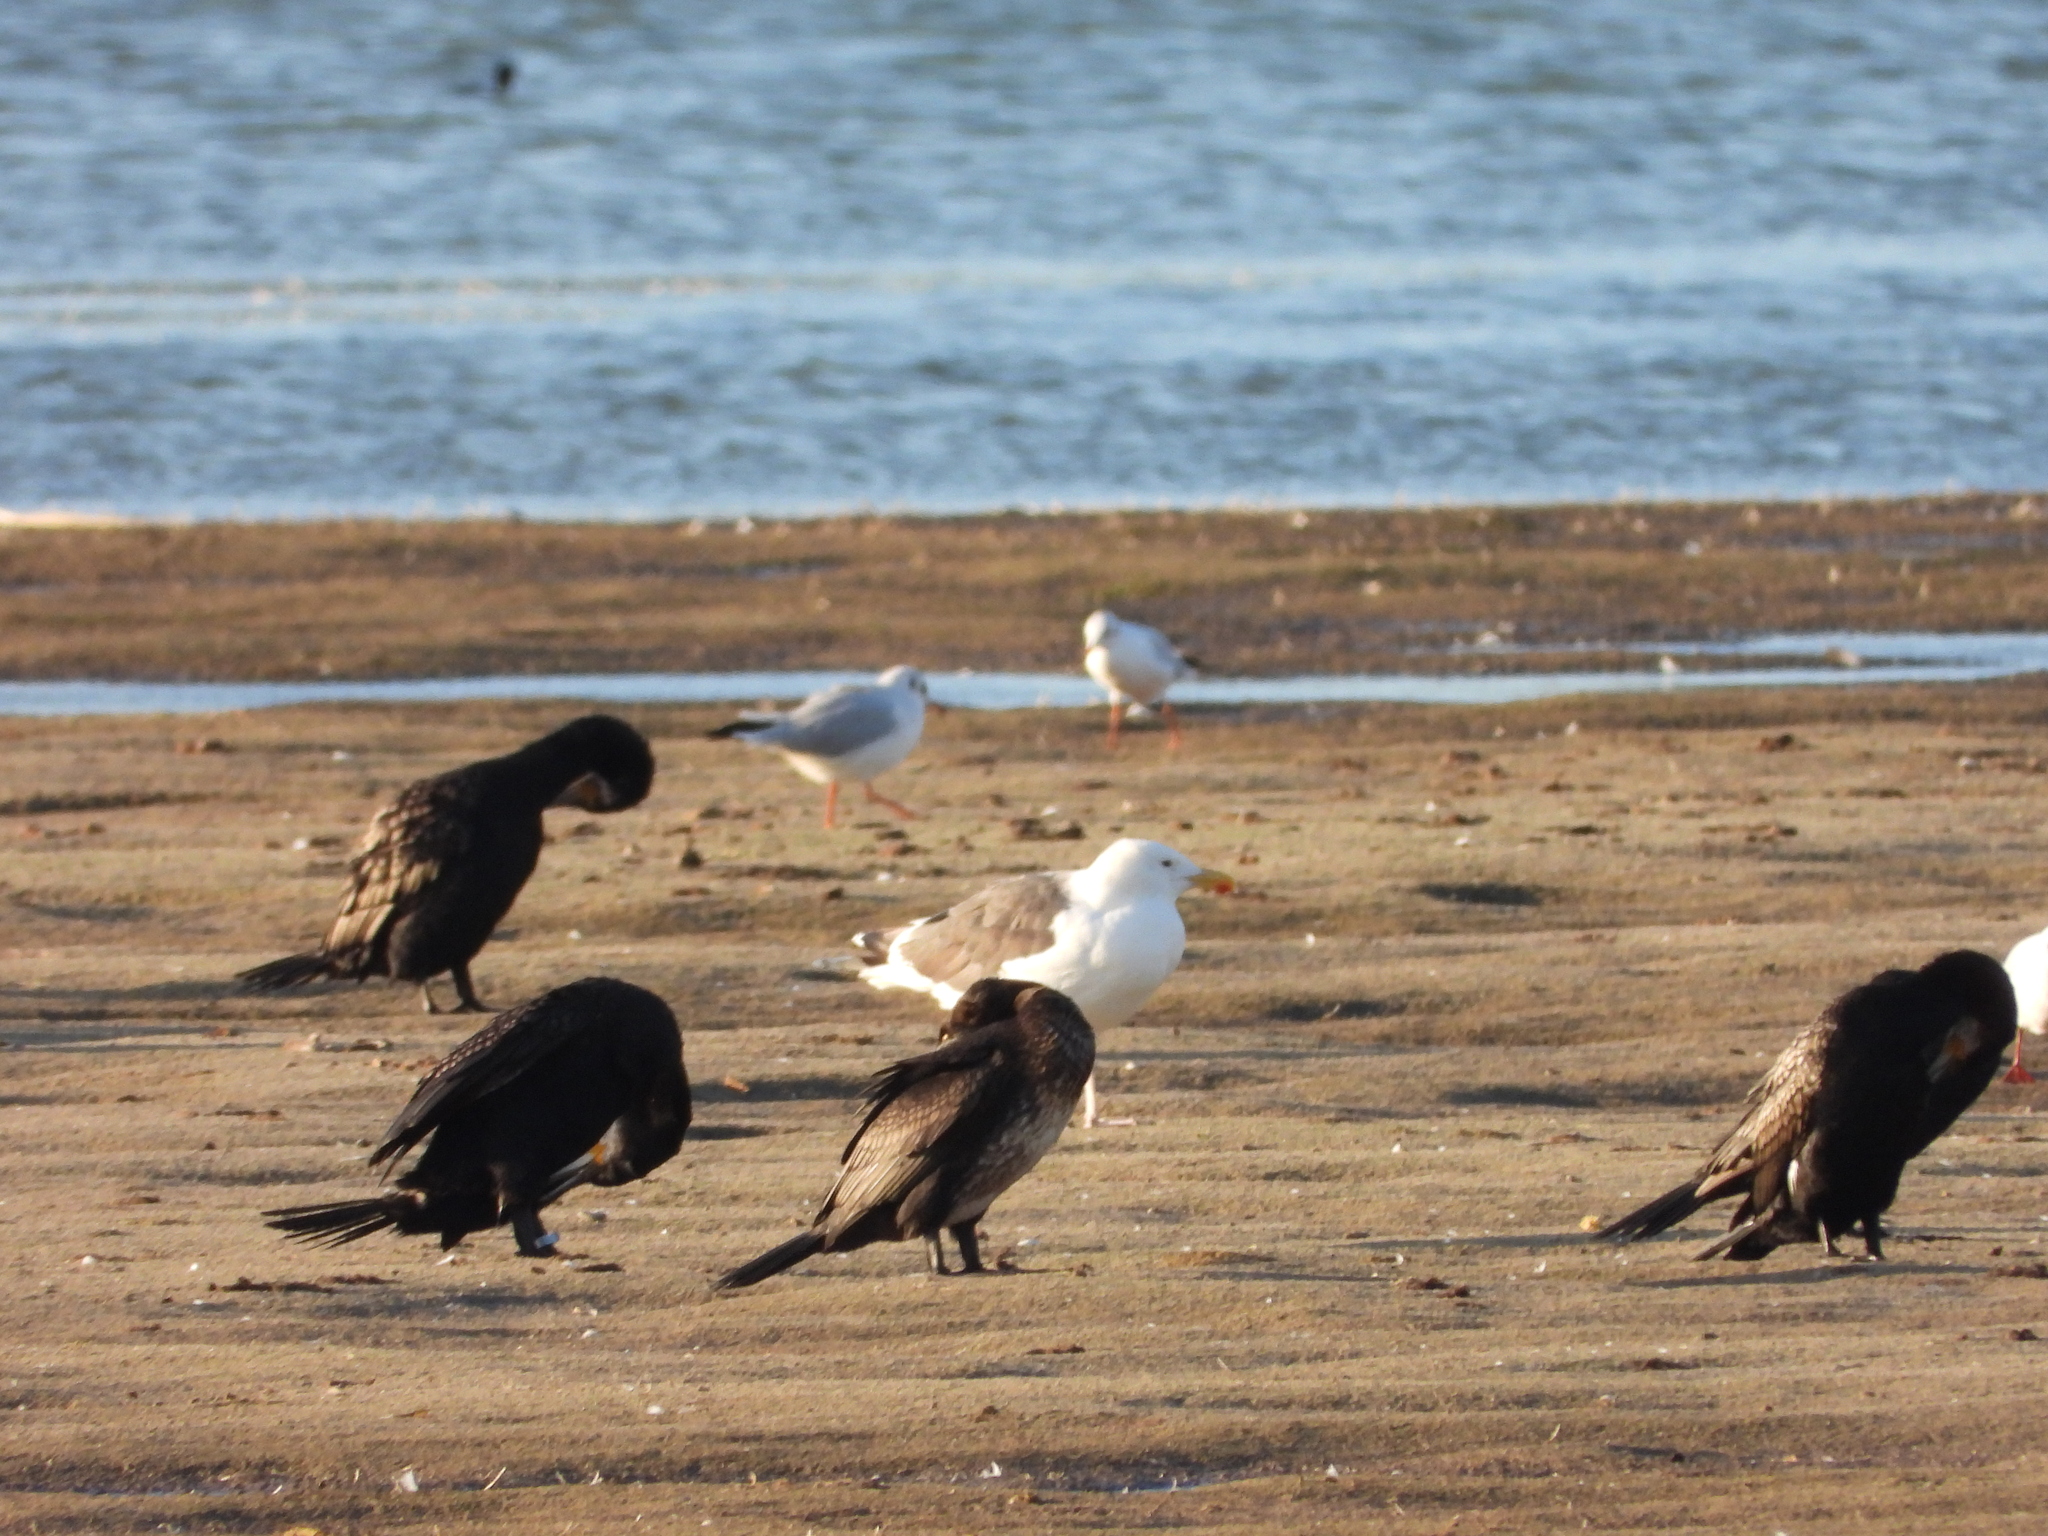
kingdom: Animalia
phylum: Chordata
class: Aves
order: Suliformes
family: Phalacrocoracidae
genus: Phalacrocorax
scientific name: Phalacrocorax carbo
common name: Great cormorant
